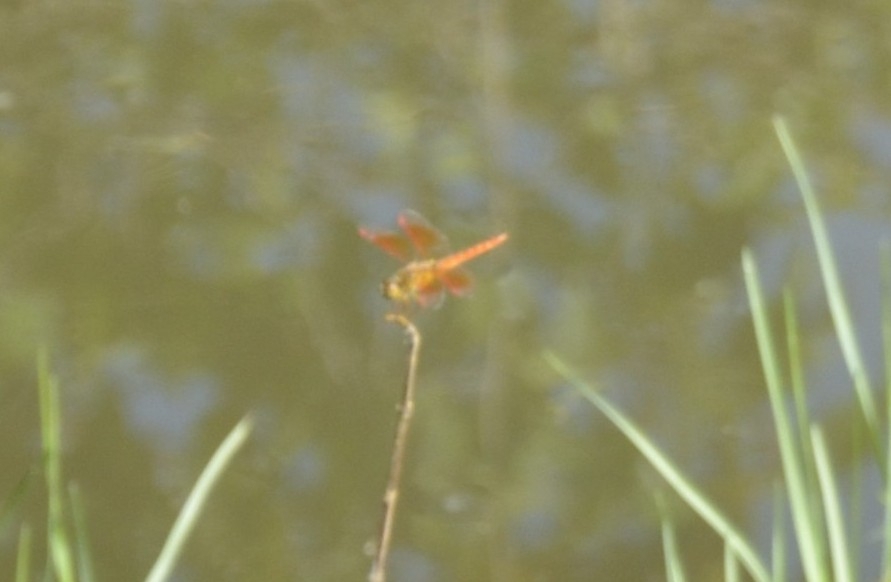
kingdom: Animalia
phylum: Arthropoda
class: Insecta
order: Odonata
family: Libellulidae
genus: Brachythemis
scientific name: Brachythemis contaminata
